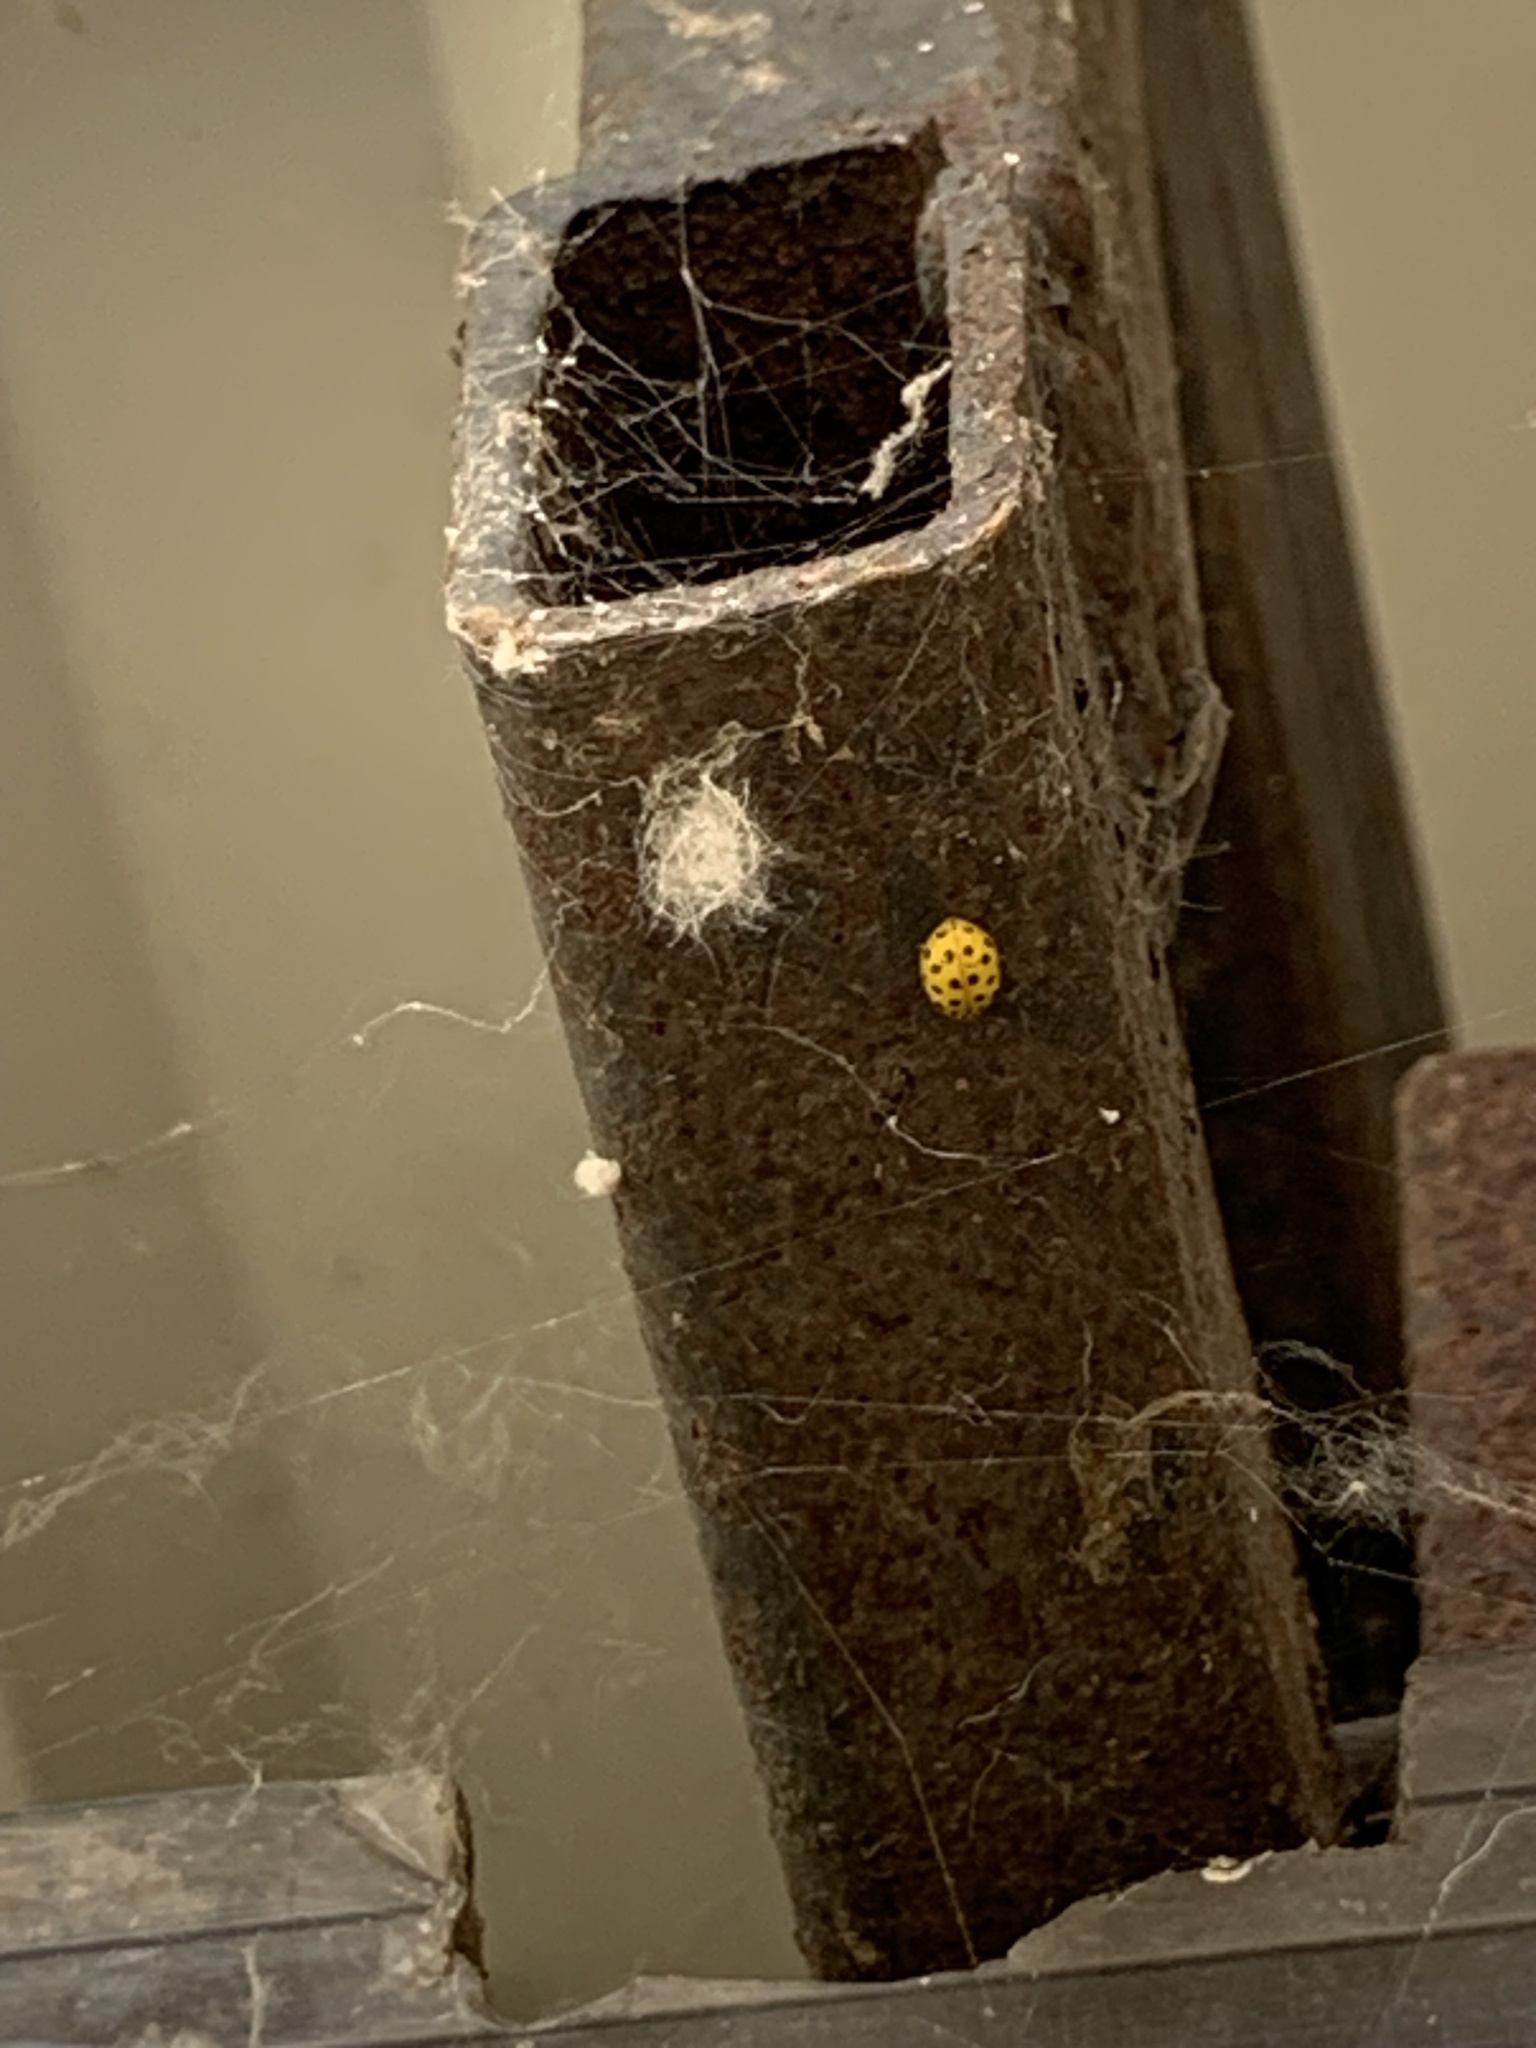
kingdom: Animalia
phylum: Arthropoda
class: Insecta
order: Coleoptera
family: Coccinellidae
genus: Psyllobora
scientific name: Psyllobora vigintiduopunctata
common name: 22-spot ladybird
